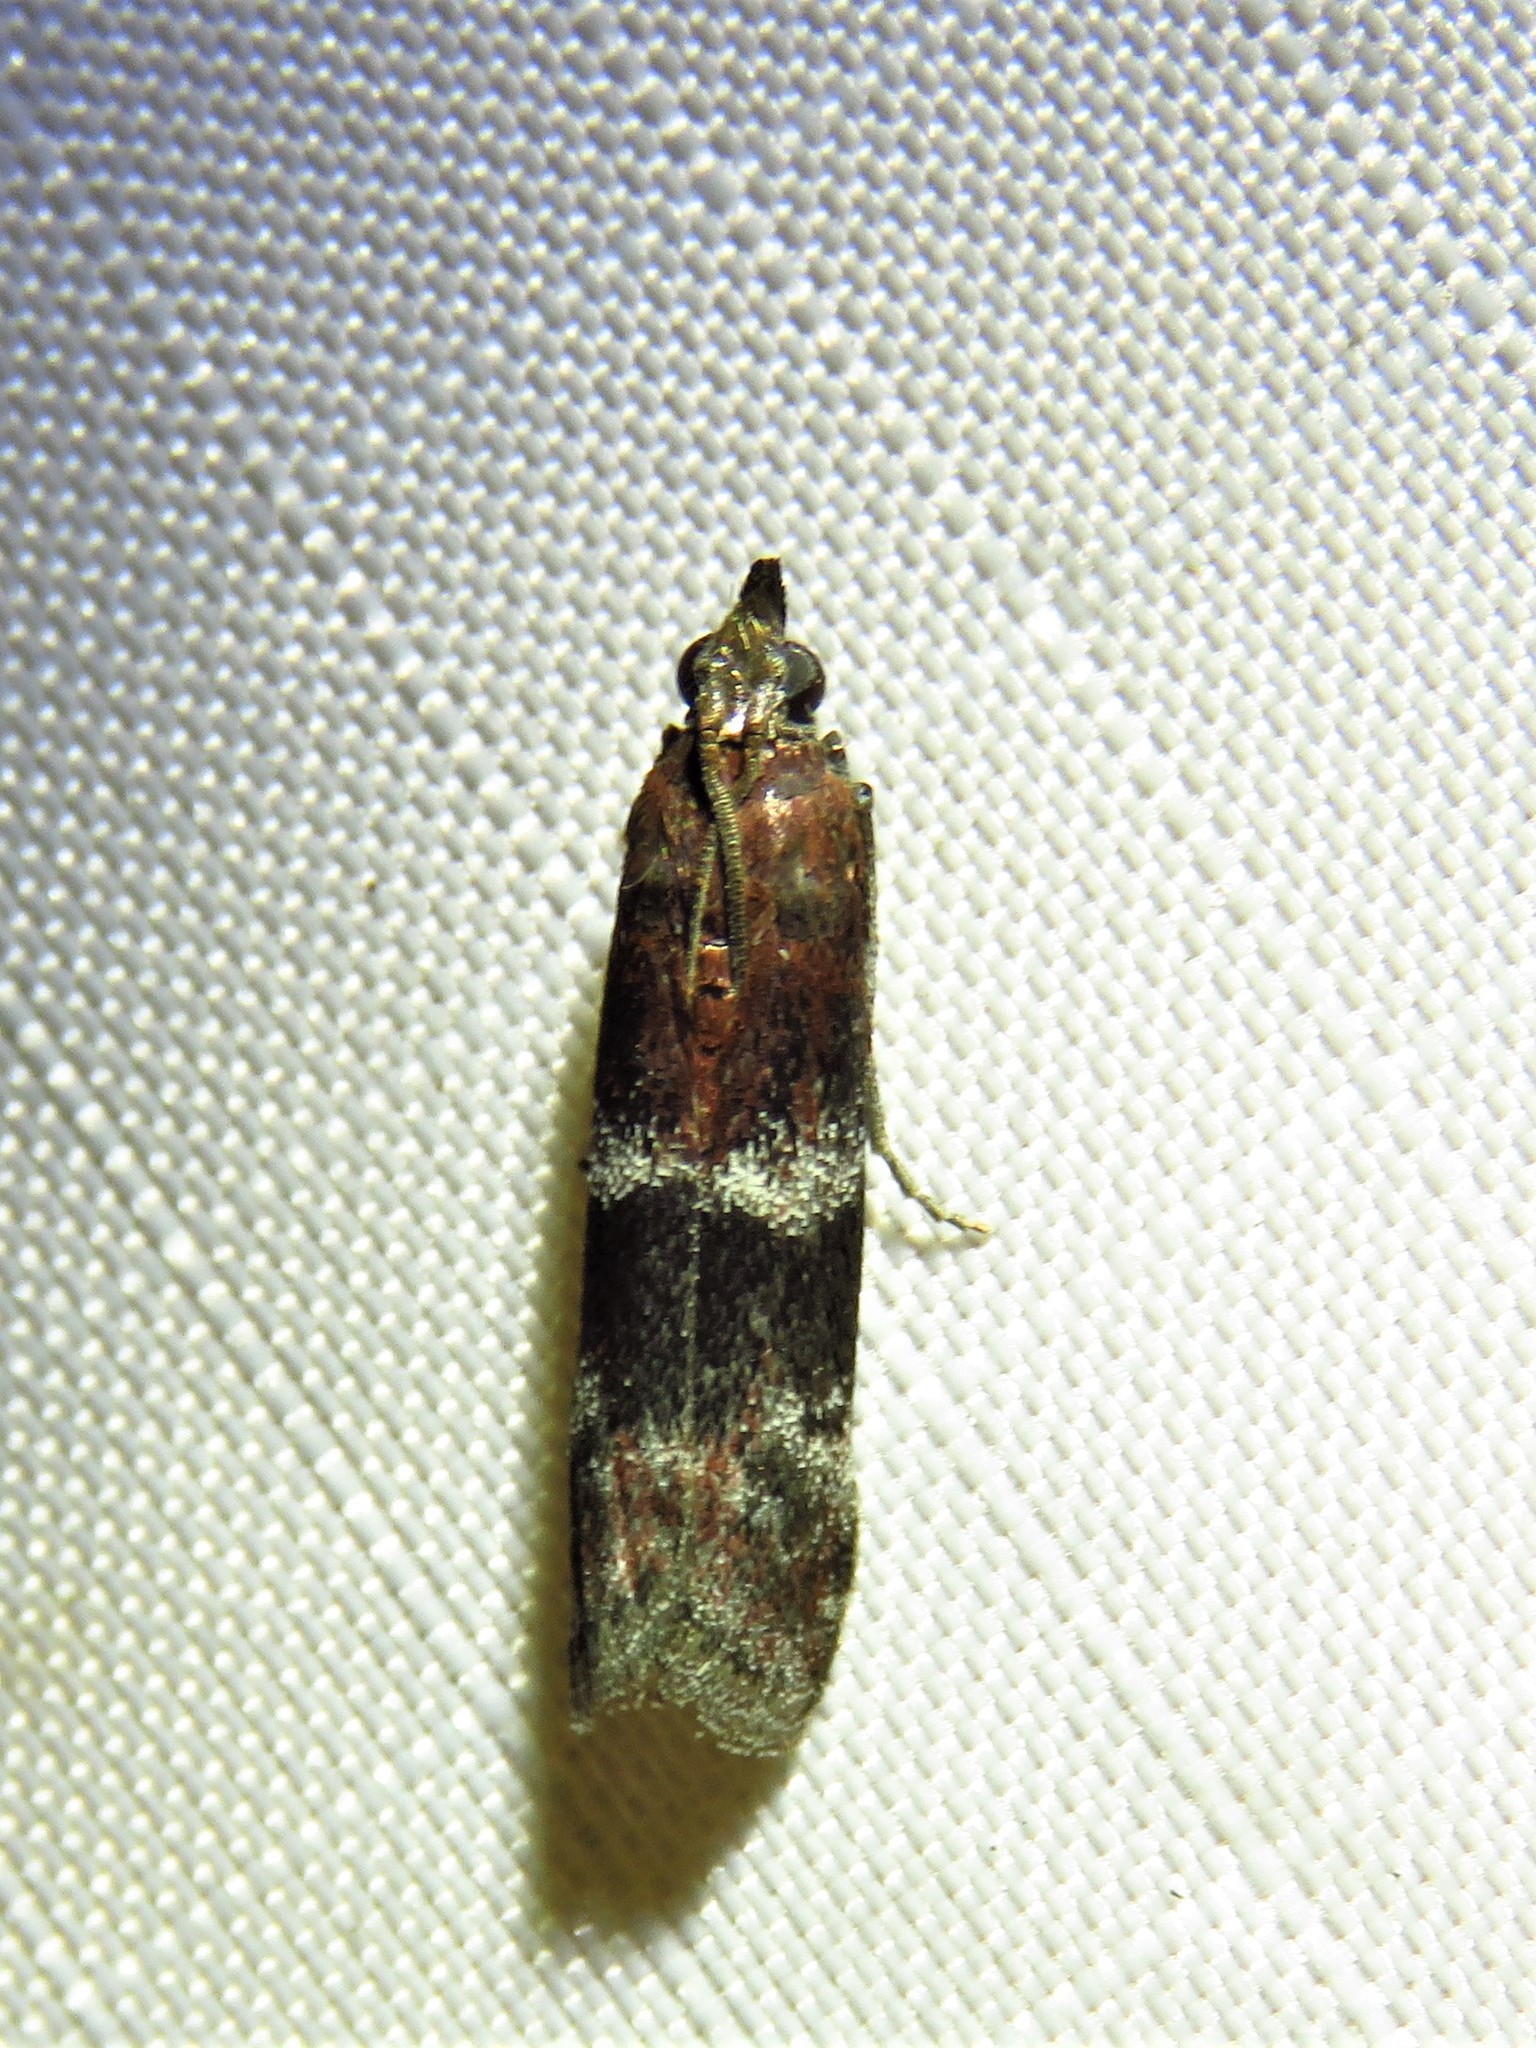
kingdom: Animalia
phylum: Arthropoda
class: Insecta
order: Lepidoptera
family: Pyralidae
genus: Moodna
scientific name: Moodna ostrinella
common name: Darker moodna moth
